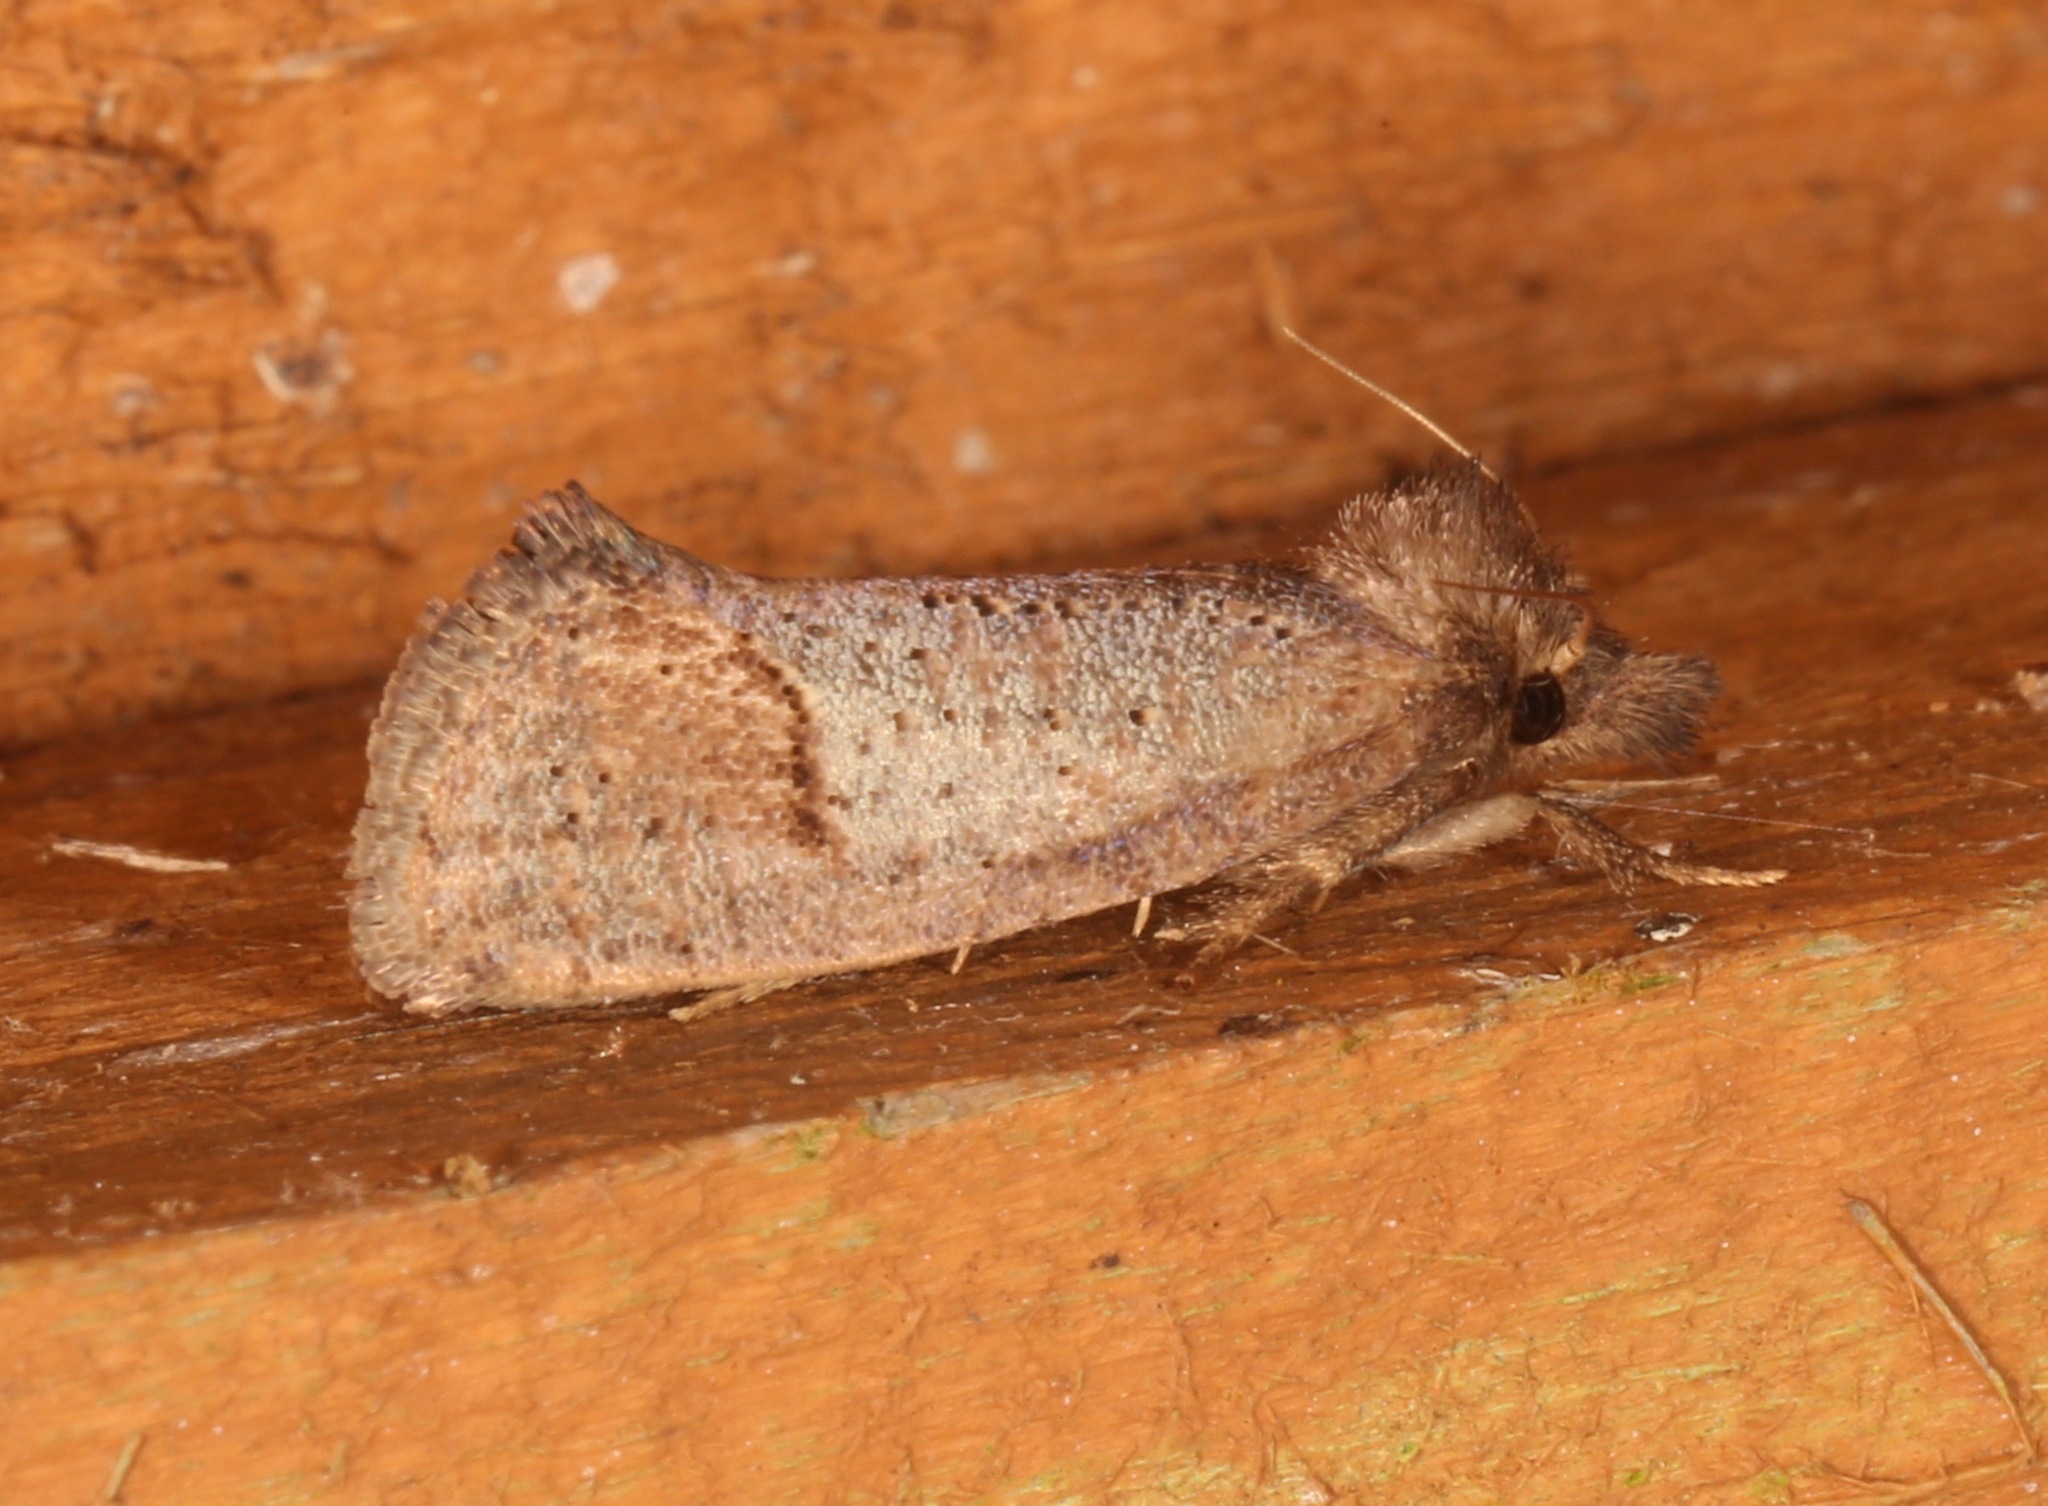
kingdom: Animalia
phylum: Arthropoda
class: Insecta
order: Lepidoptera
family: Tineidae
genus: Acrolophus
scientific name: Acrolophus texanella
